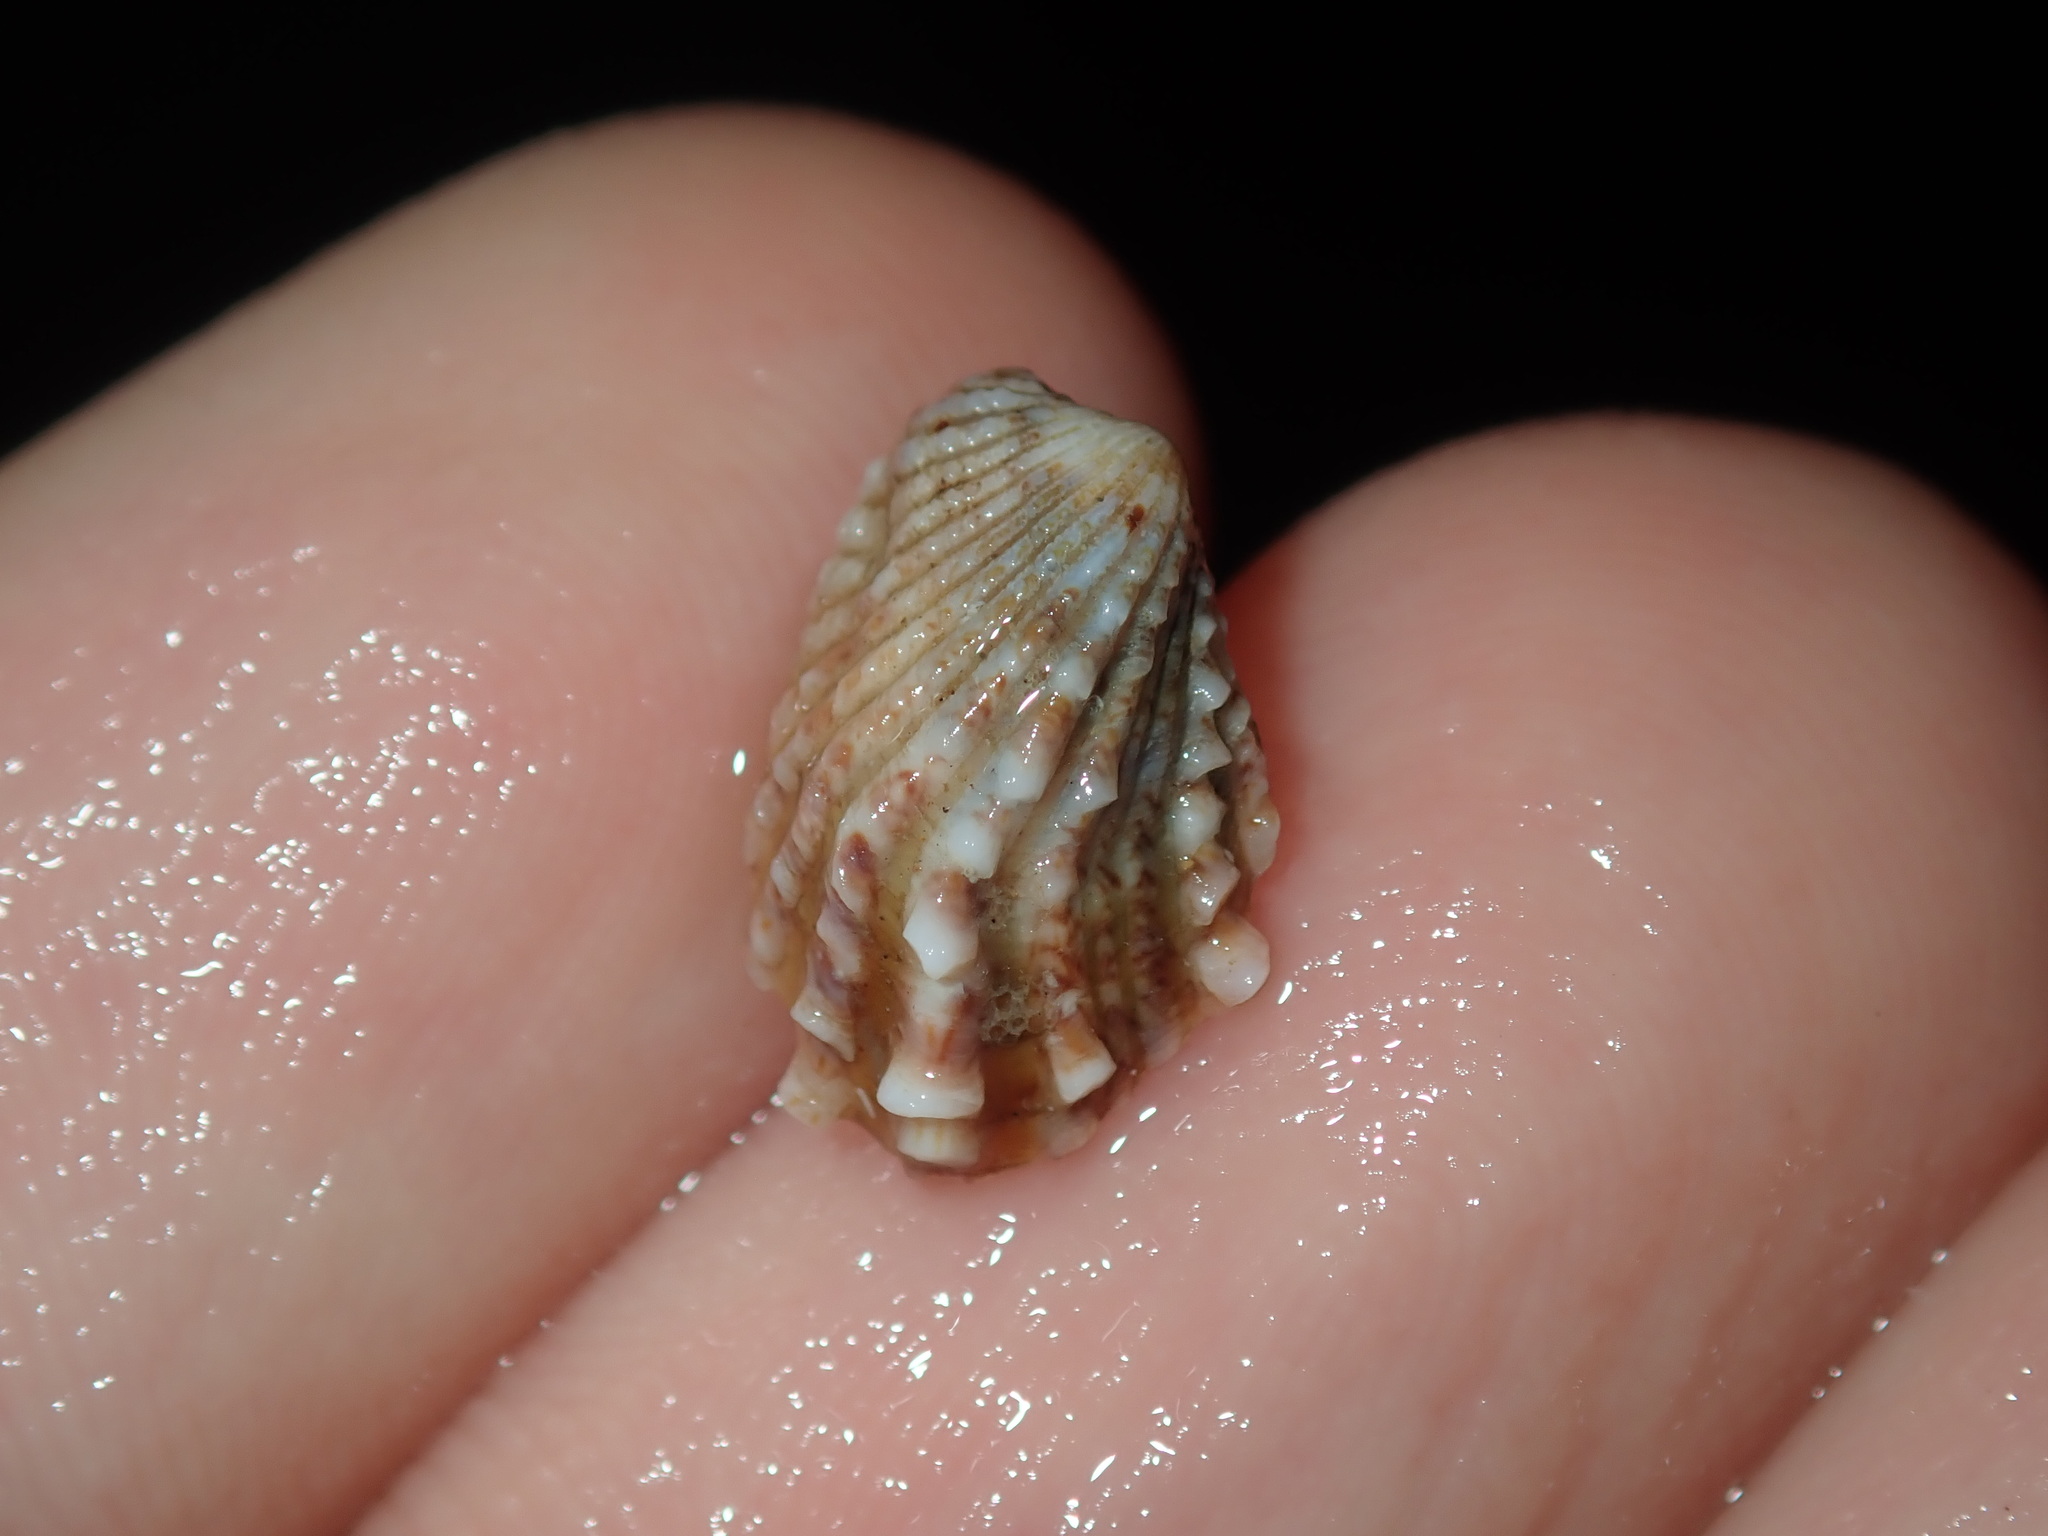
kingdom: Animalia
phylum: Mollusca
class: Bivalvia
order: Carditida
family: Carditidae
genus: Cardita
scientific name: Cardita aviculina
